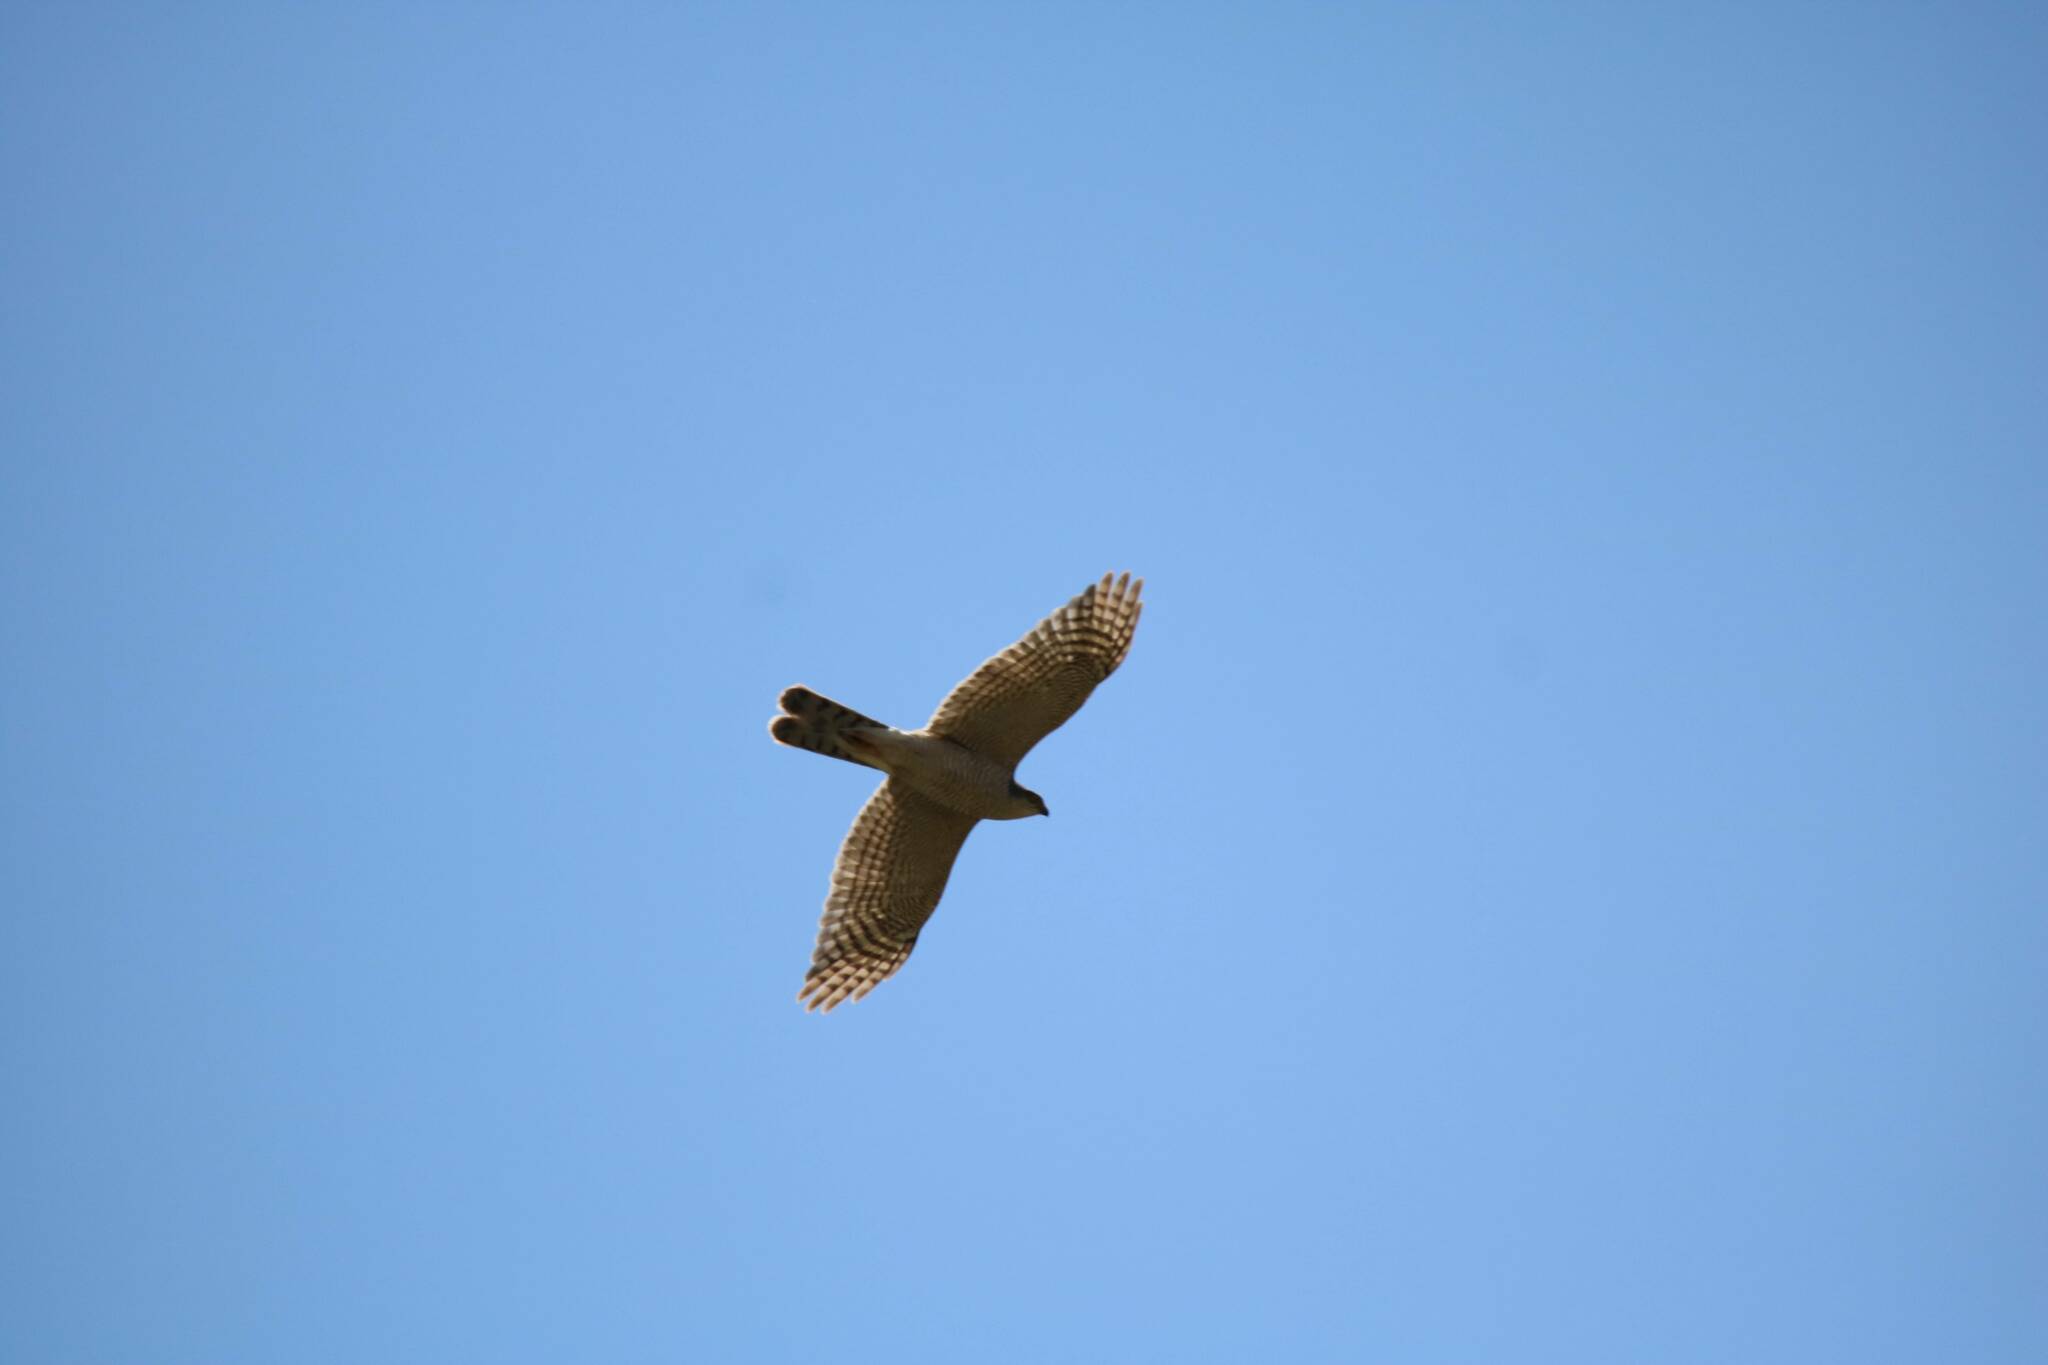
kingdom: Animalia
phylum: Chordata
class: Aves
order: Accipitriformes
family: Accipitridae
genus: Accipiter
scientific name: Accipiter nisus
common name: Eurasian sparrowhawk
